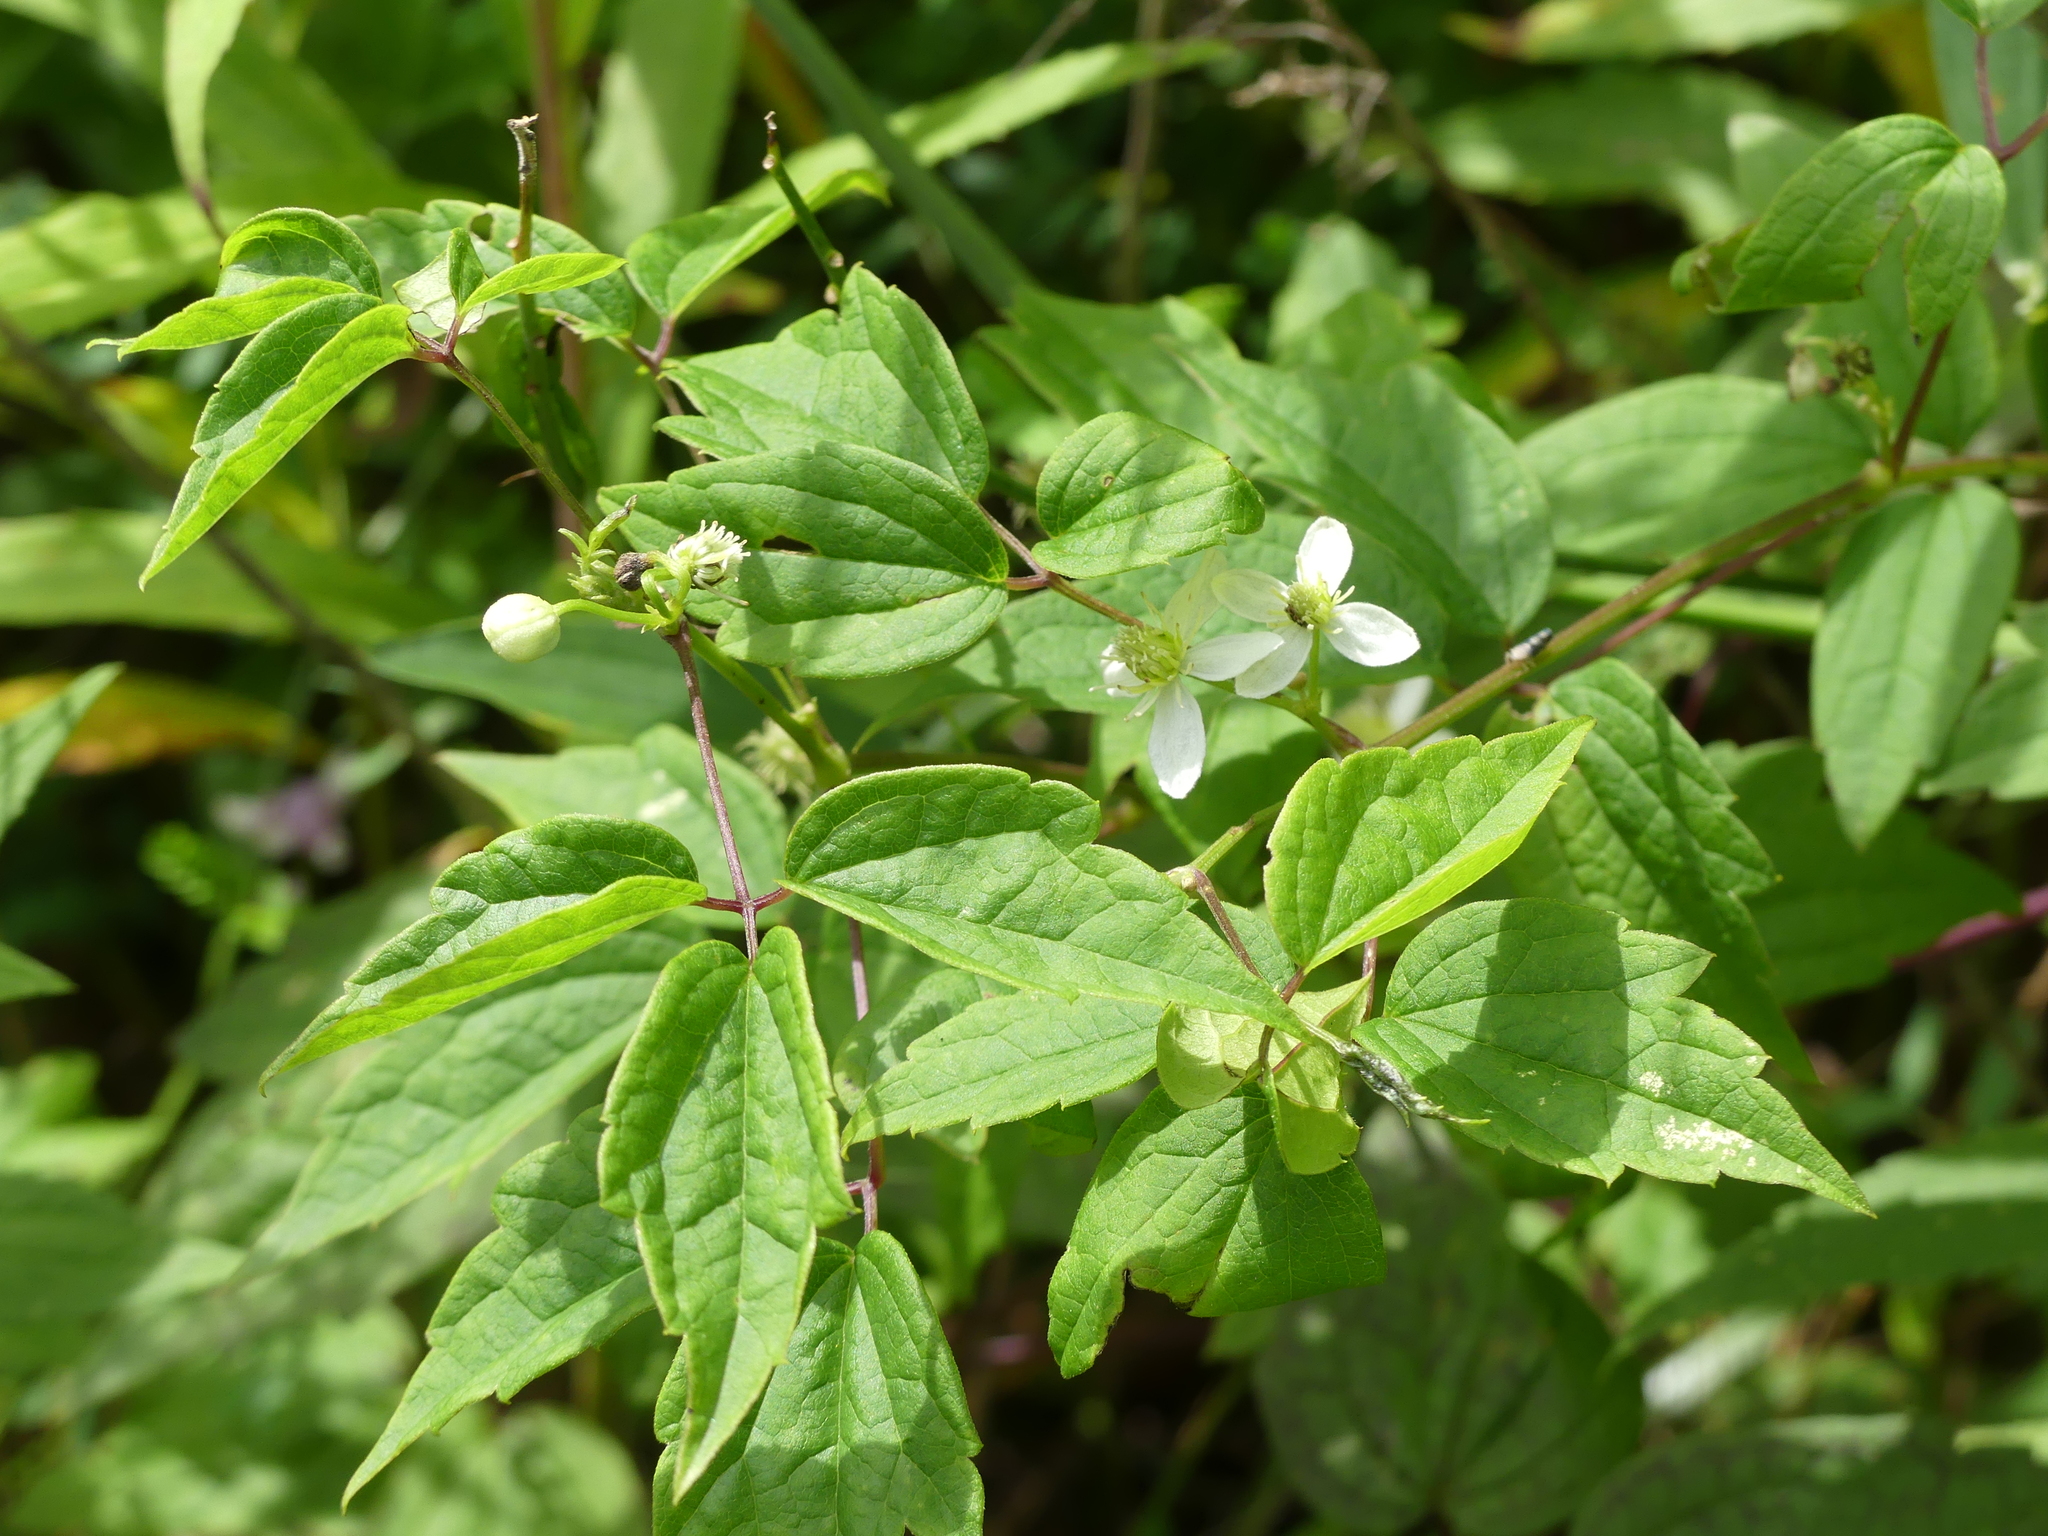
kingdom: Plantae
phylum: Tracheophyta
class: Magnoliopsida
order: Ranunculales
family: Ranunculaceae
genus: Clematis
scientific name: Clematis virginiana
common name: Virgin's-bower
